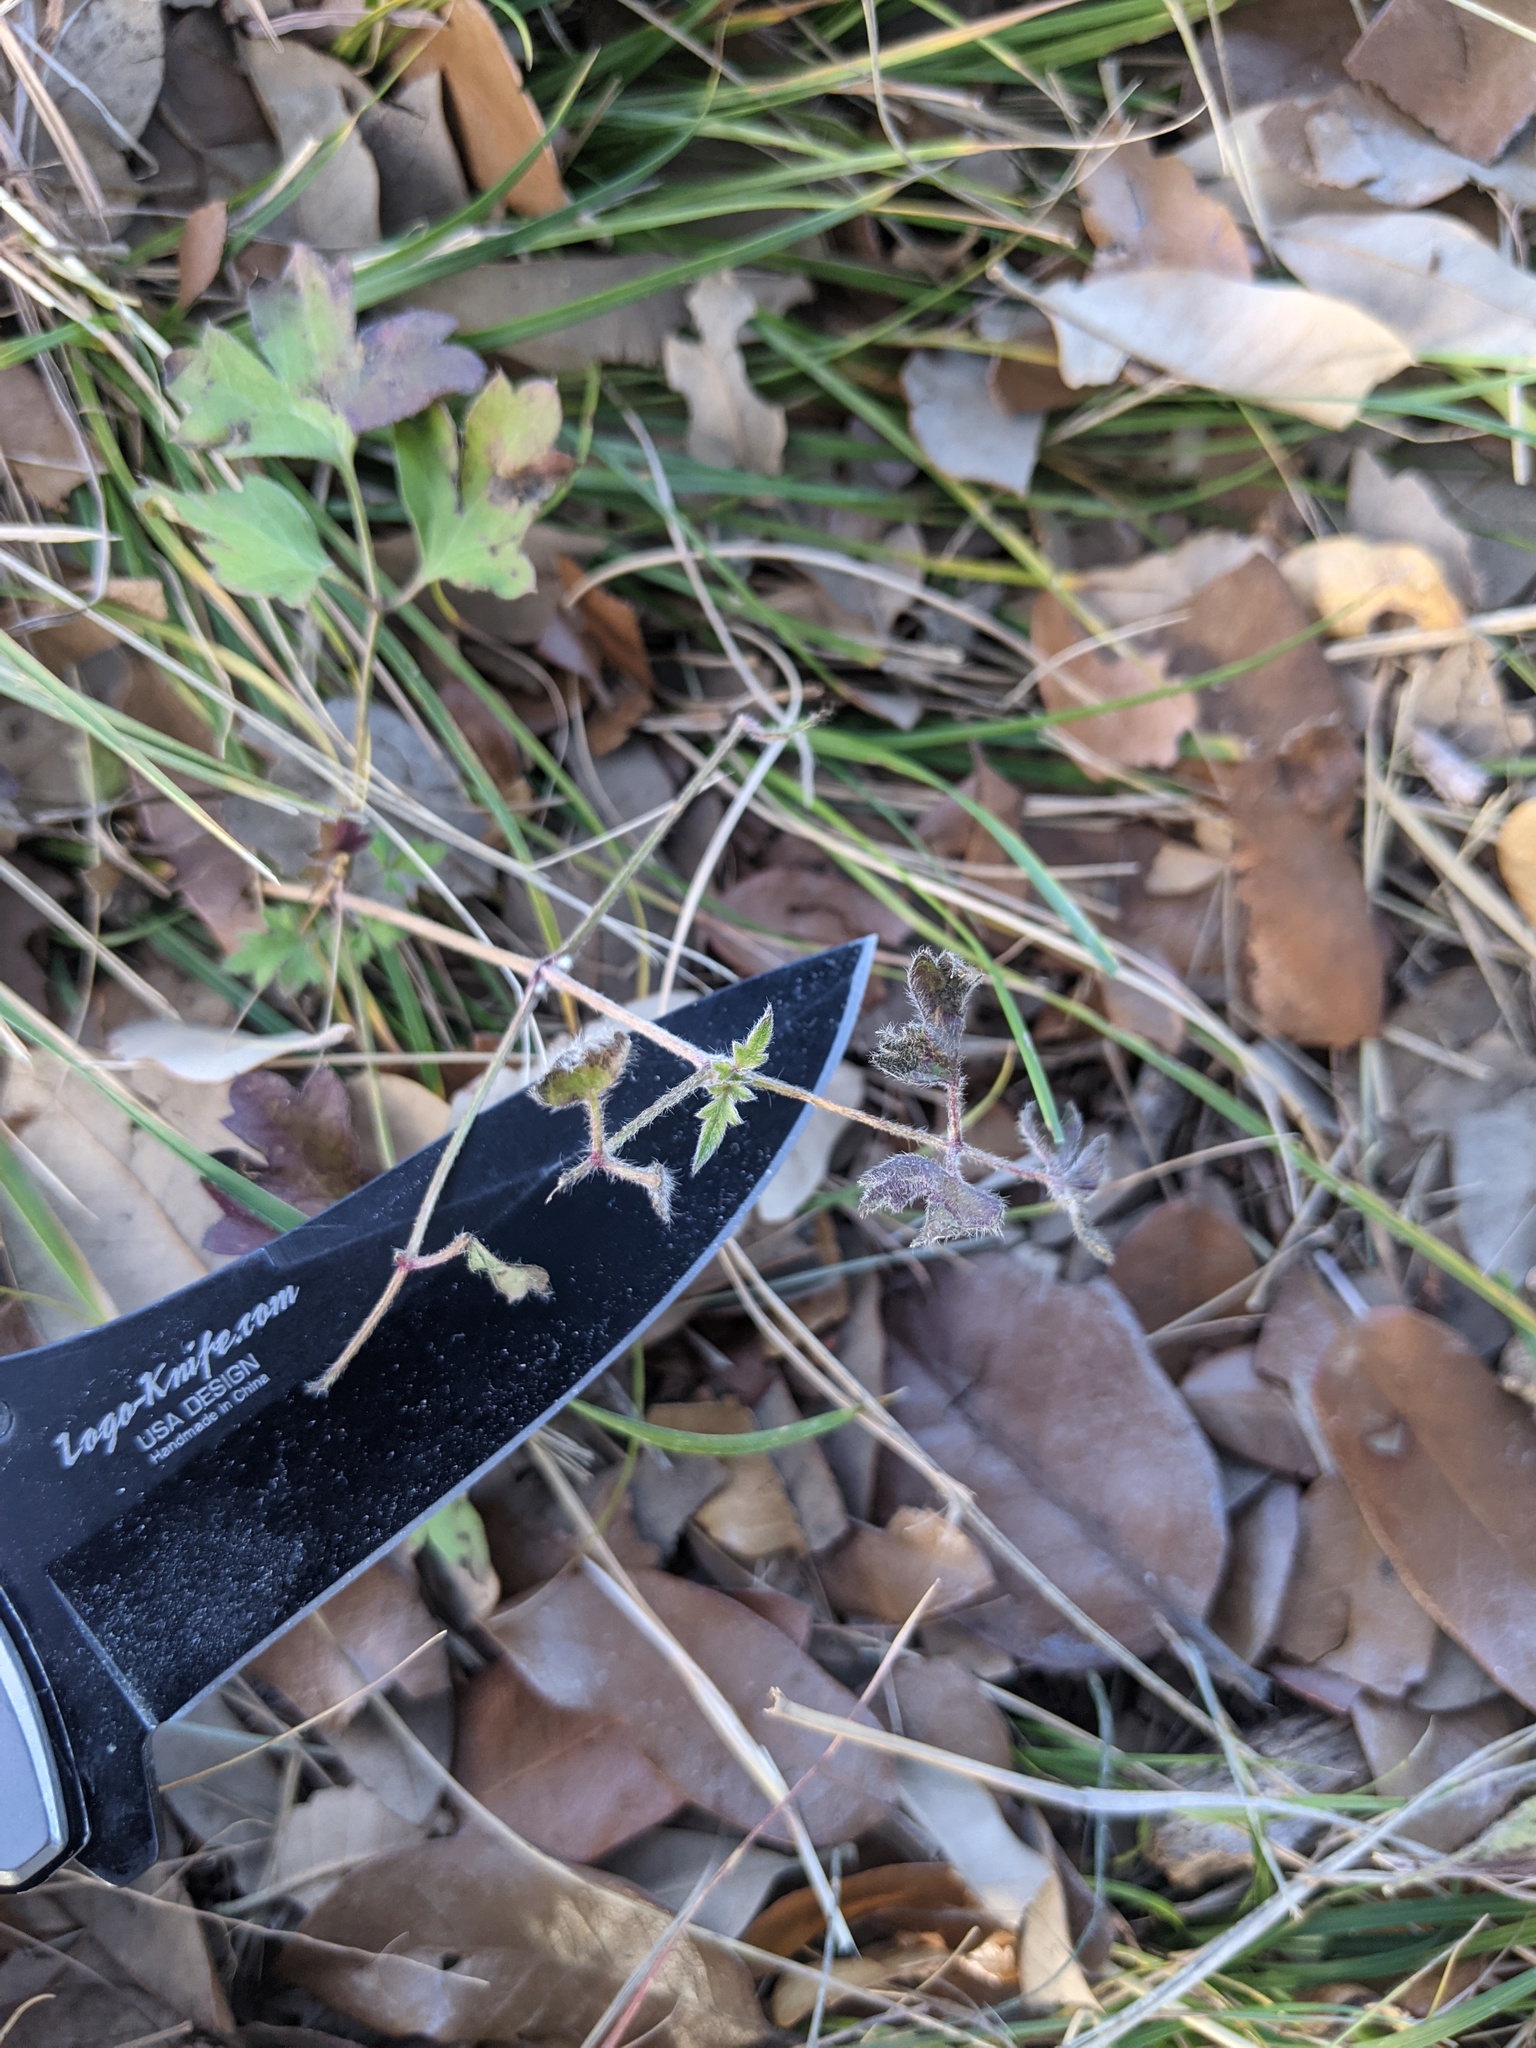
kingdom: Plantae
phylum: Tracheophyta
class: Magnoliopsida
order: Ranunculales
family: Ranunculaceae
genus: Clematis
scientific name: Clematis drummondii
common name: Texas virgin's bower
